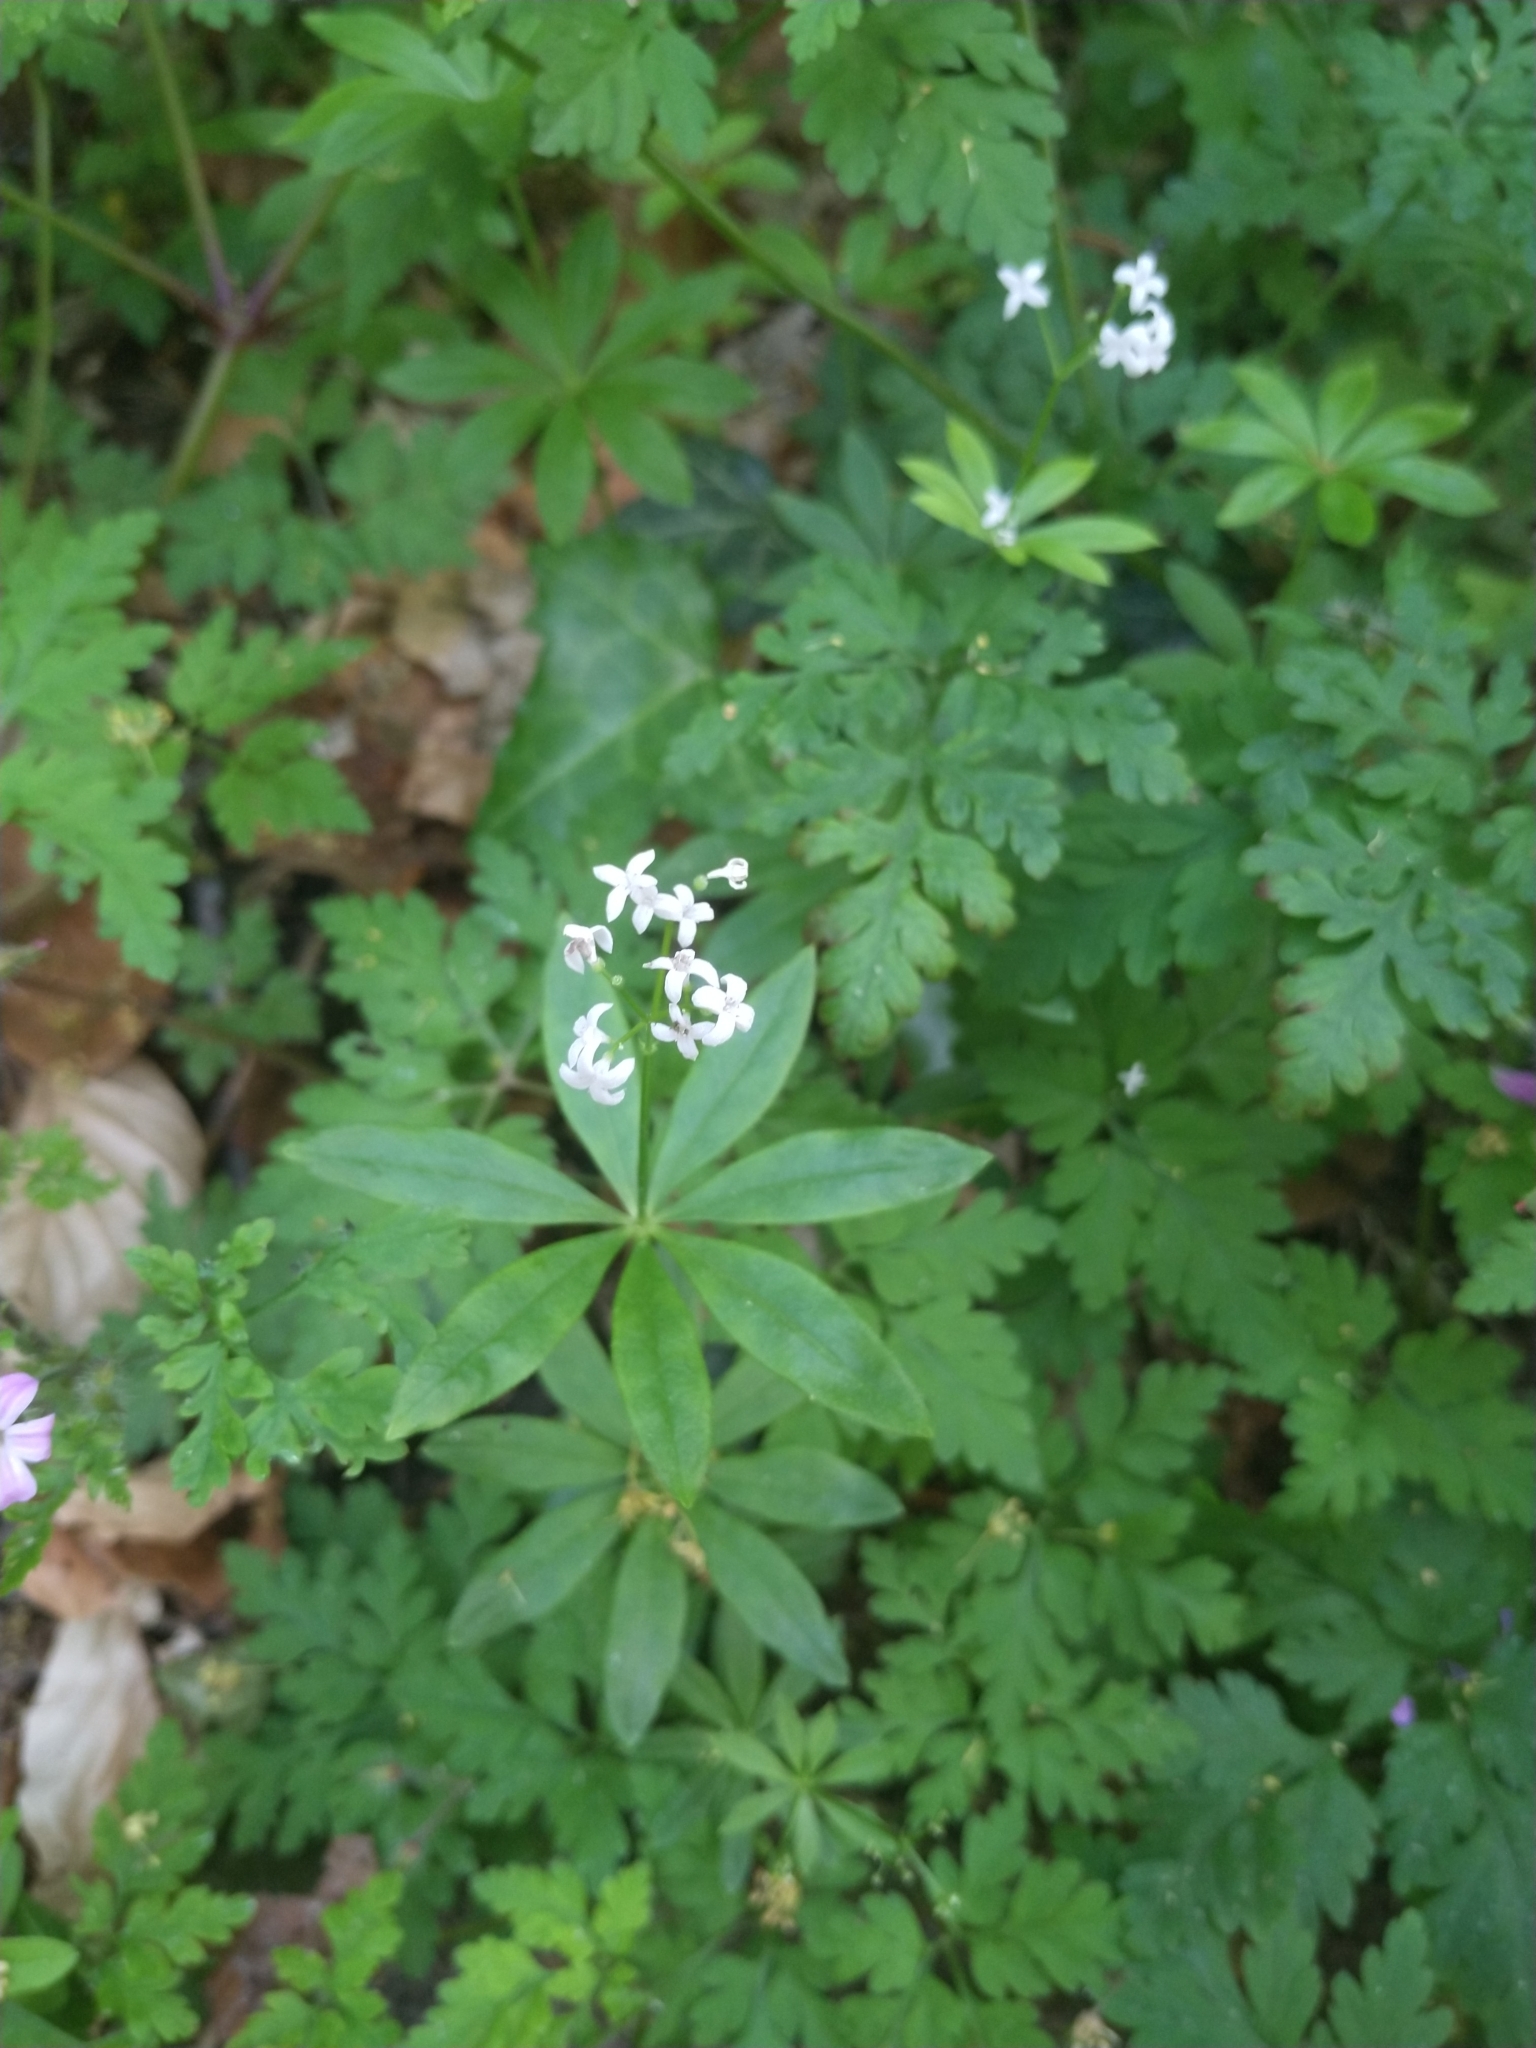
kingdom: Plantae
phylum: Tracheophyta
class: Magnoliopsida
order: Gentianales
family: Rubiaceae
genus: Galium
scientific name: Galium odoratum
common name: Sweet woodruff
